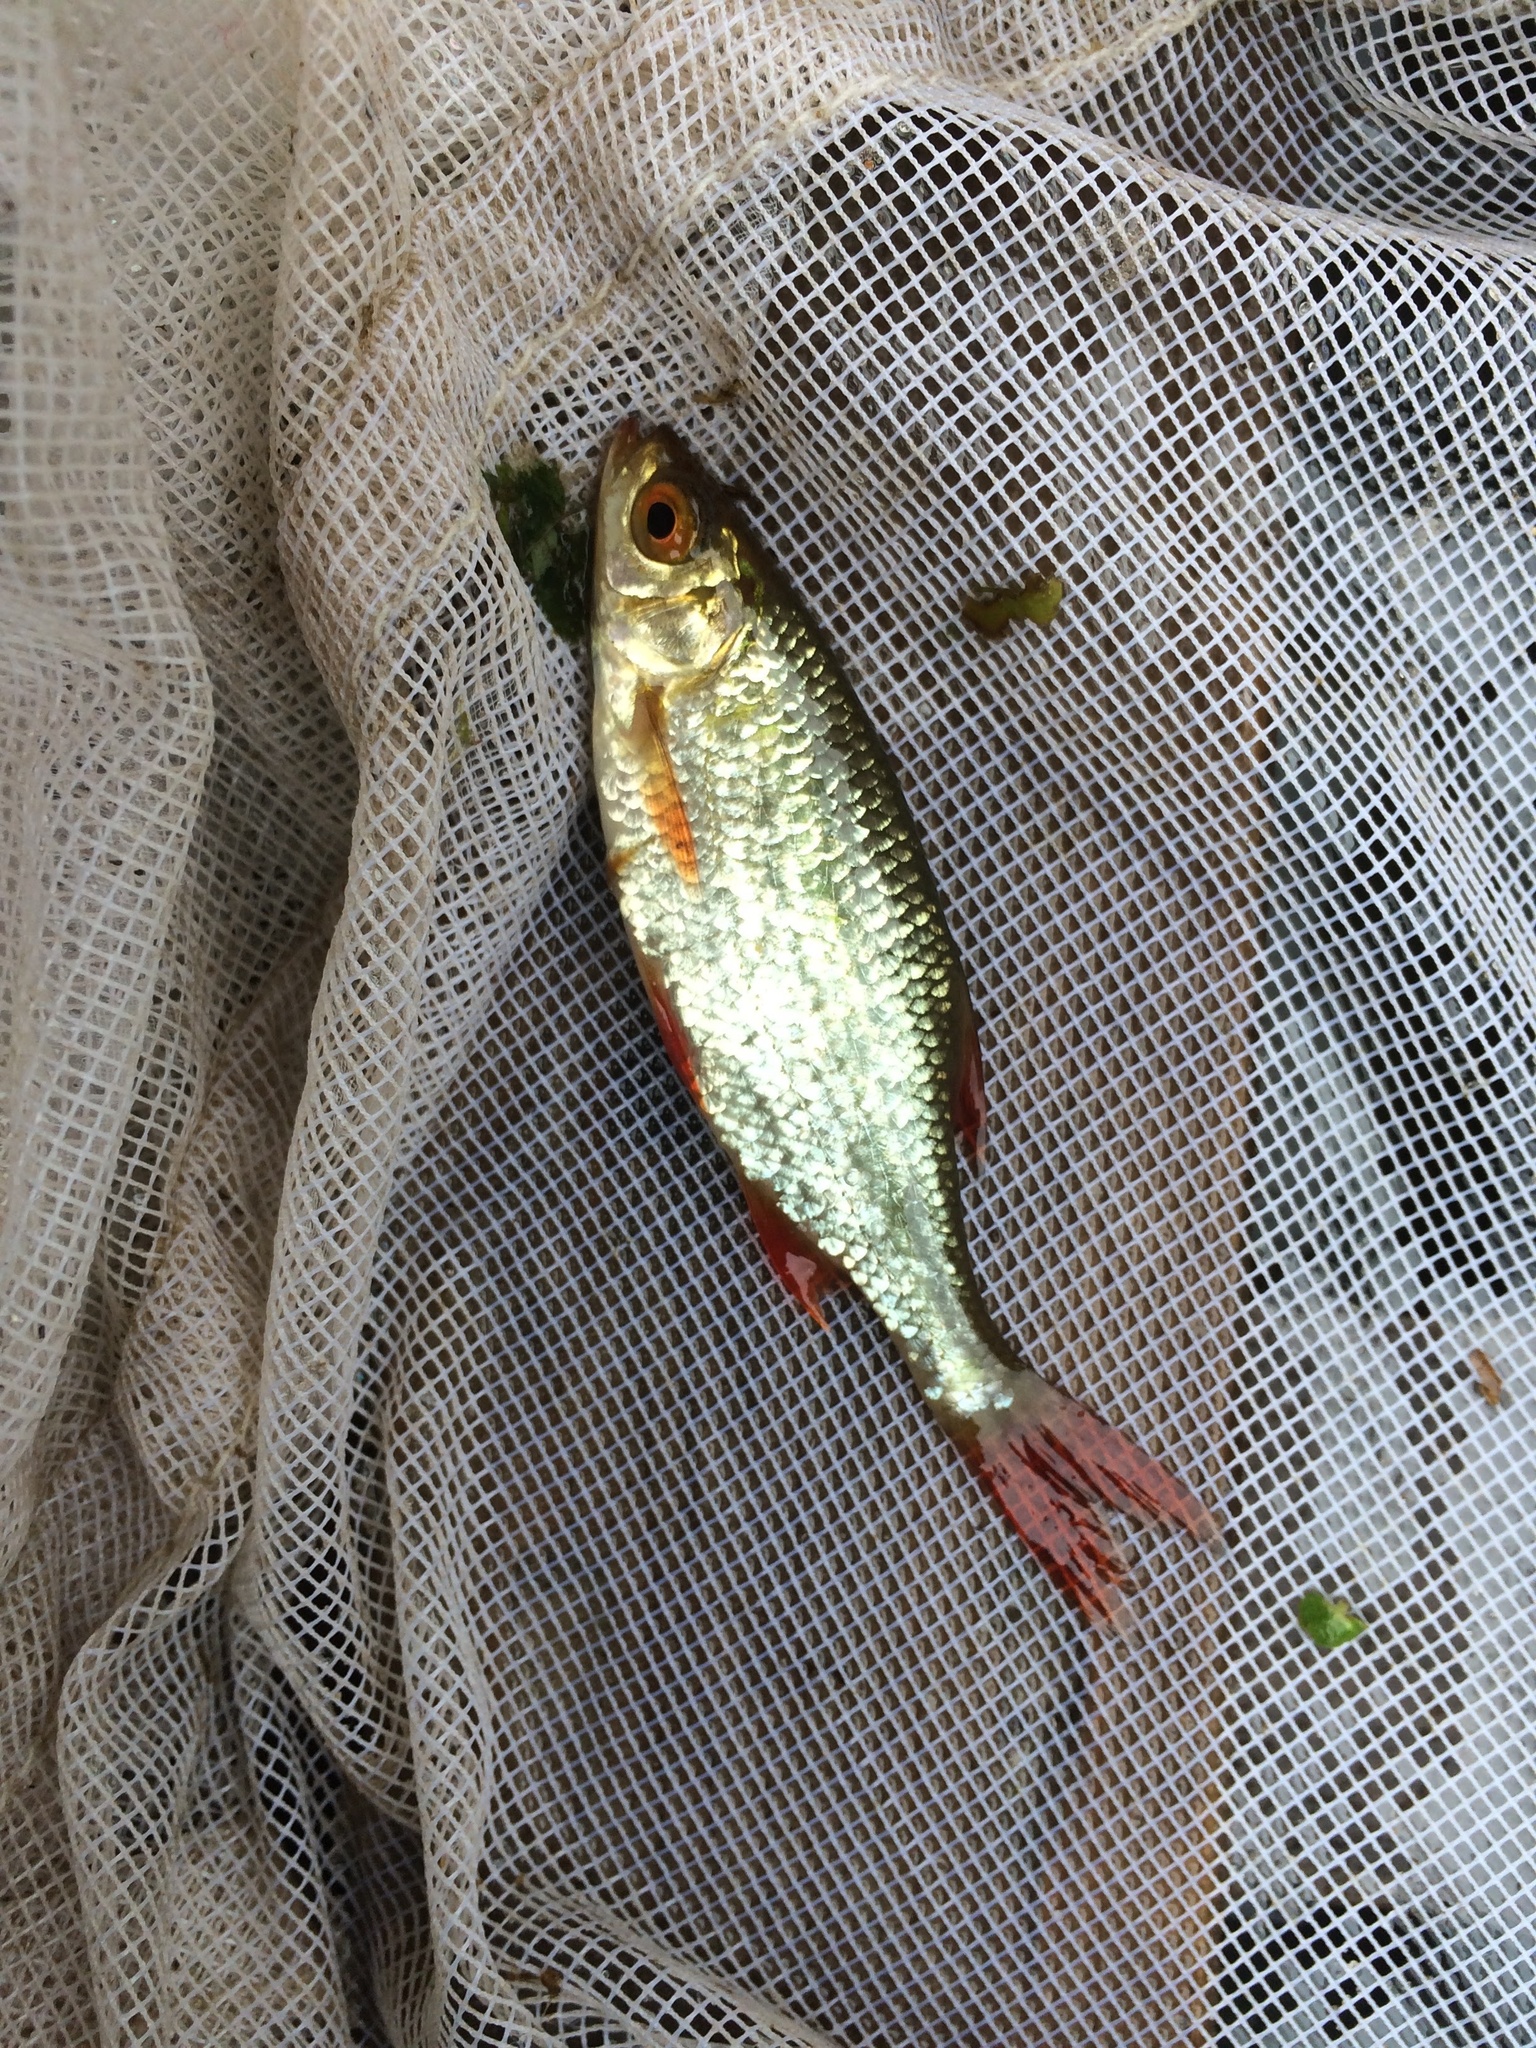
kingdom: Animalia
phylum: Chordata
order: Cypriniformes
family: Cyprinidae
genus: Scardinius
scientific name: Scardinius erythrophthalmus
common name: Rudd
